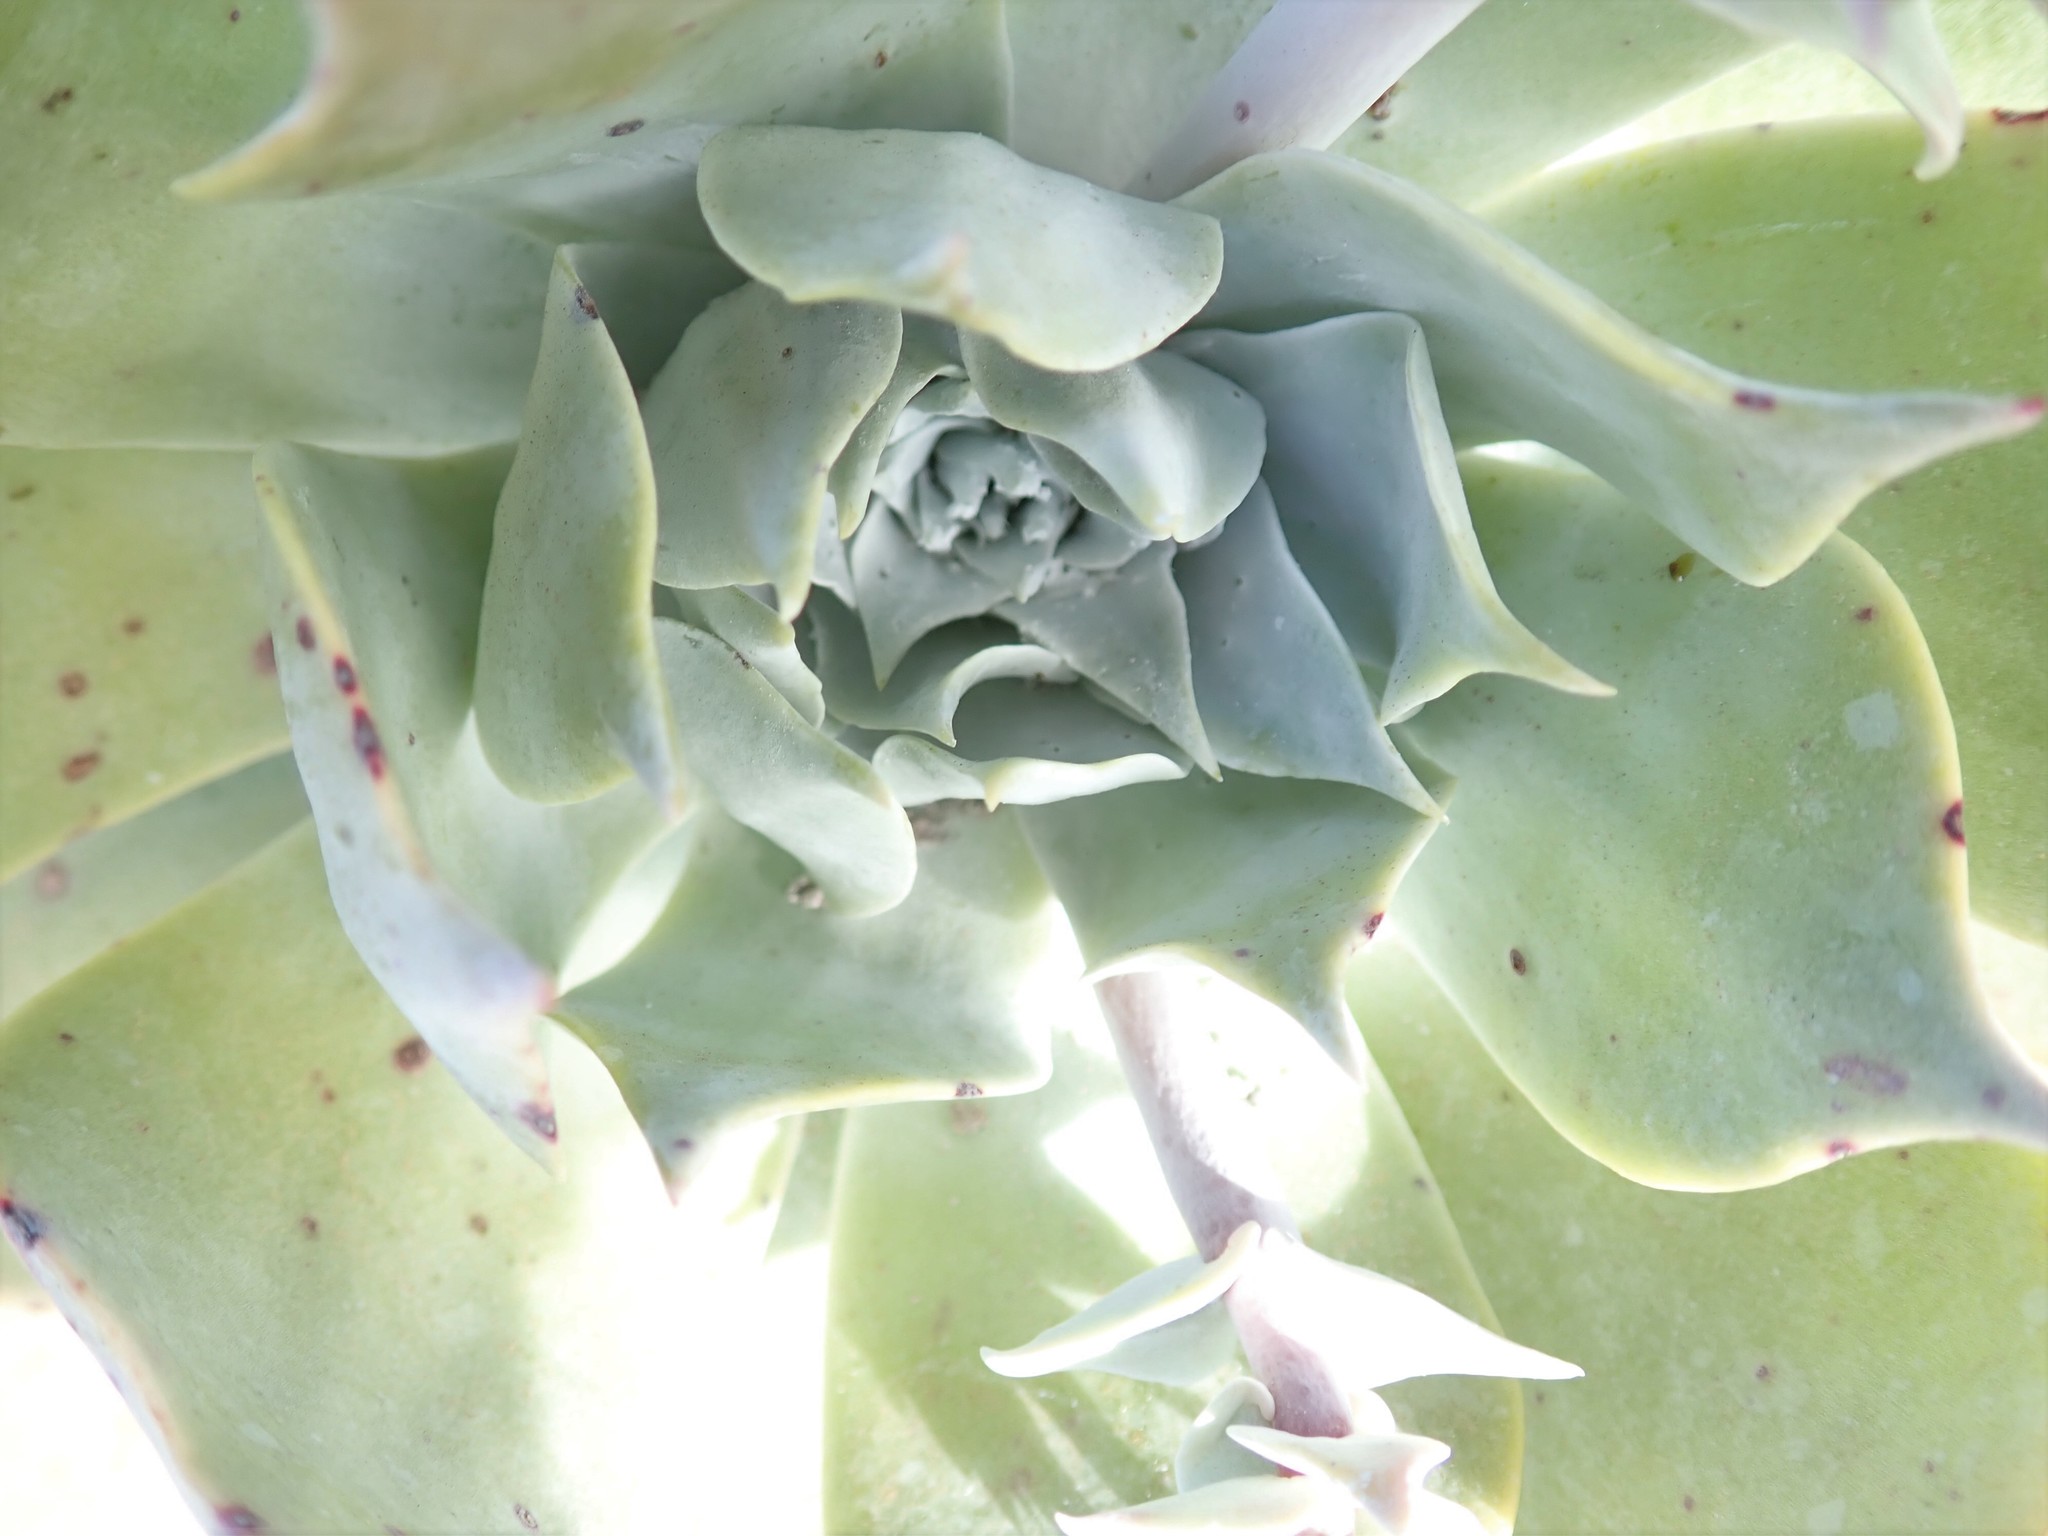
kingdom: Plantae
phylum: Tracheophyta
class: Magnoliopsida
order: Saxifragales
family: Crassulaceae
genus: Dudleya
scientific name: Dudleya pulverulenta
